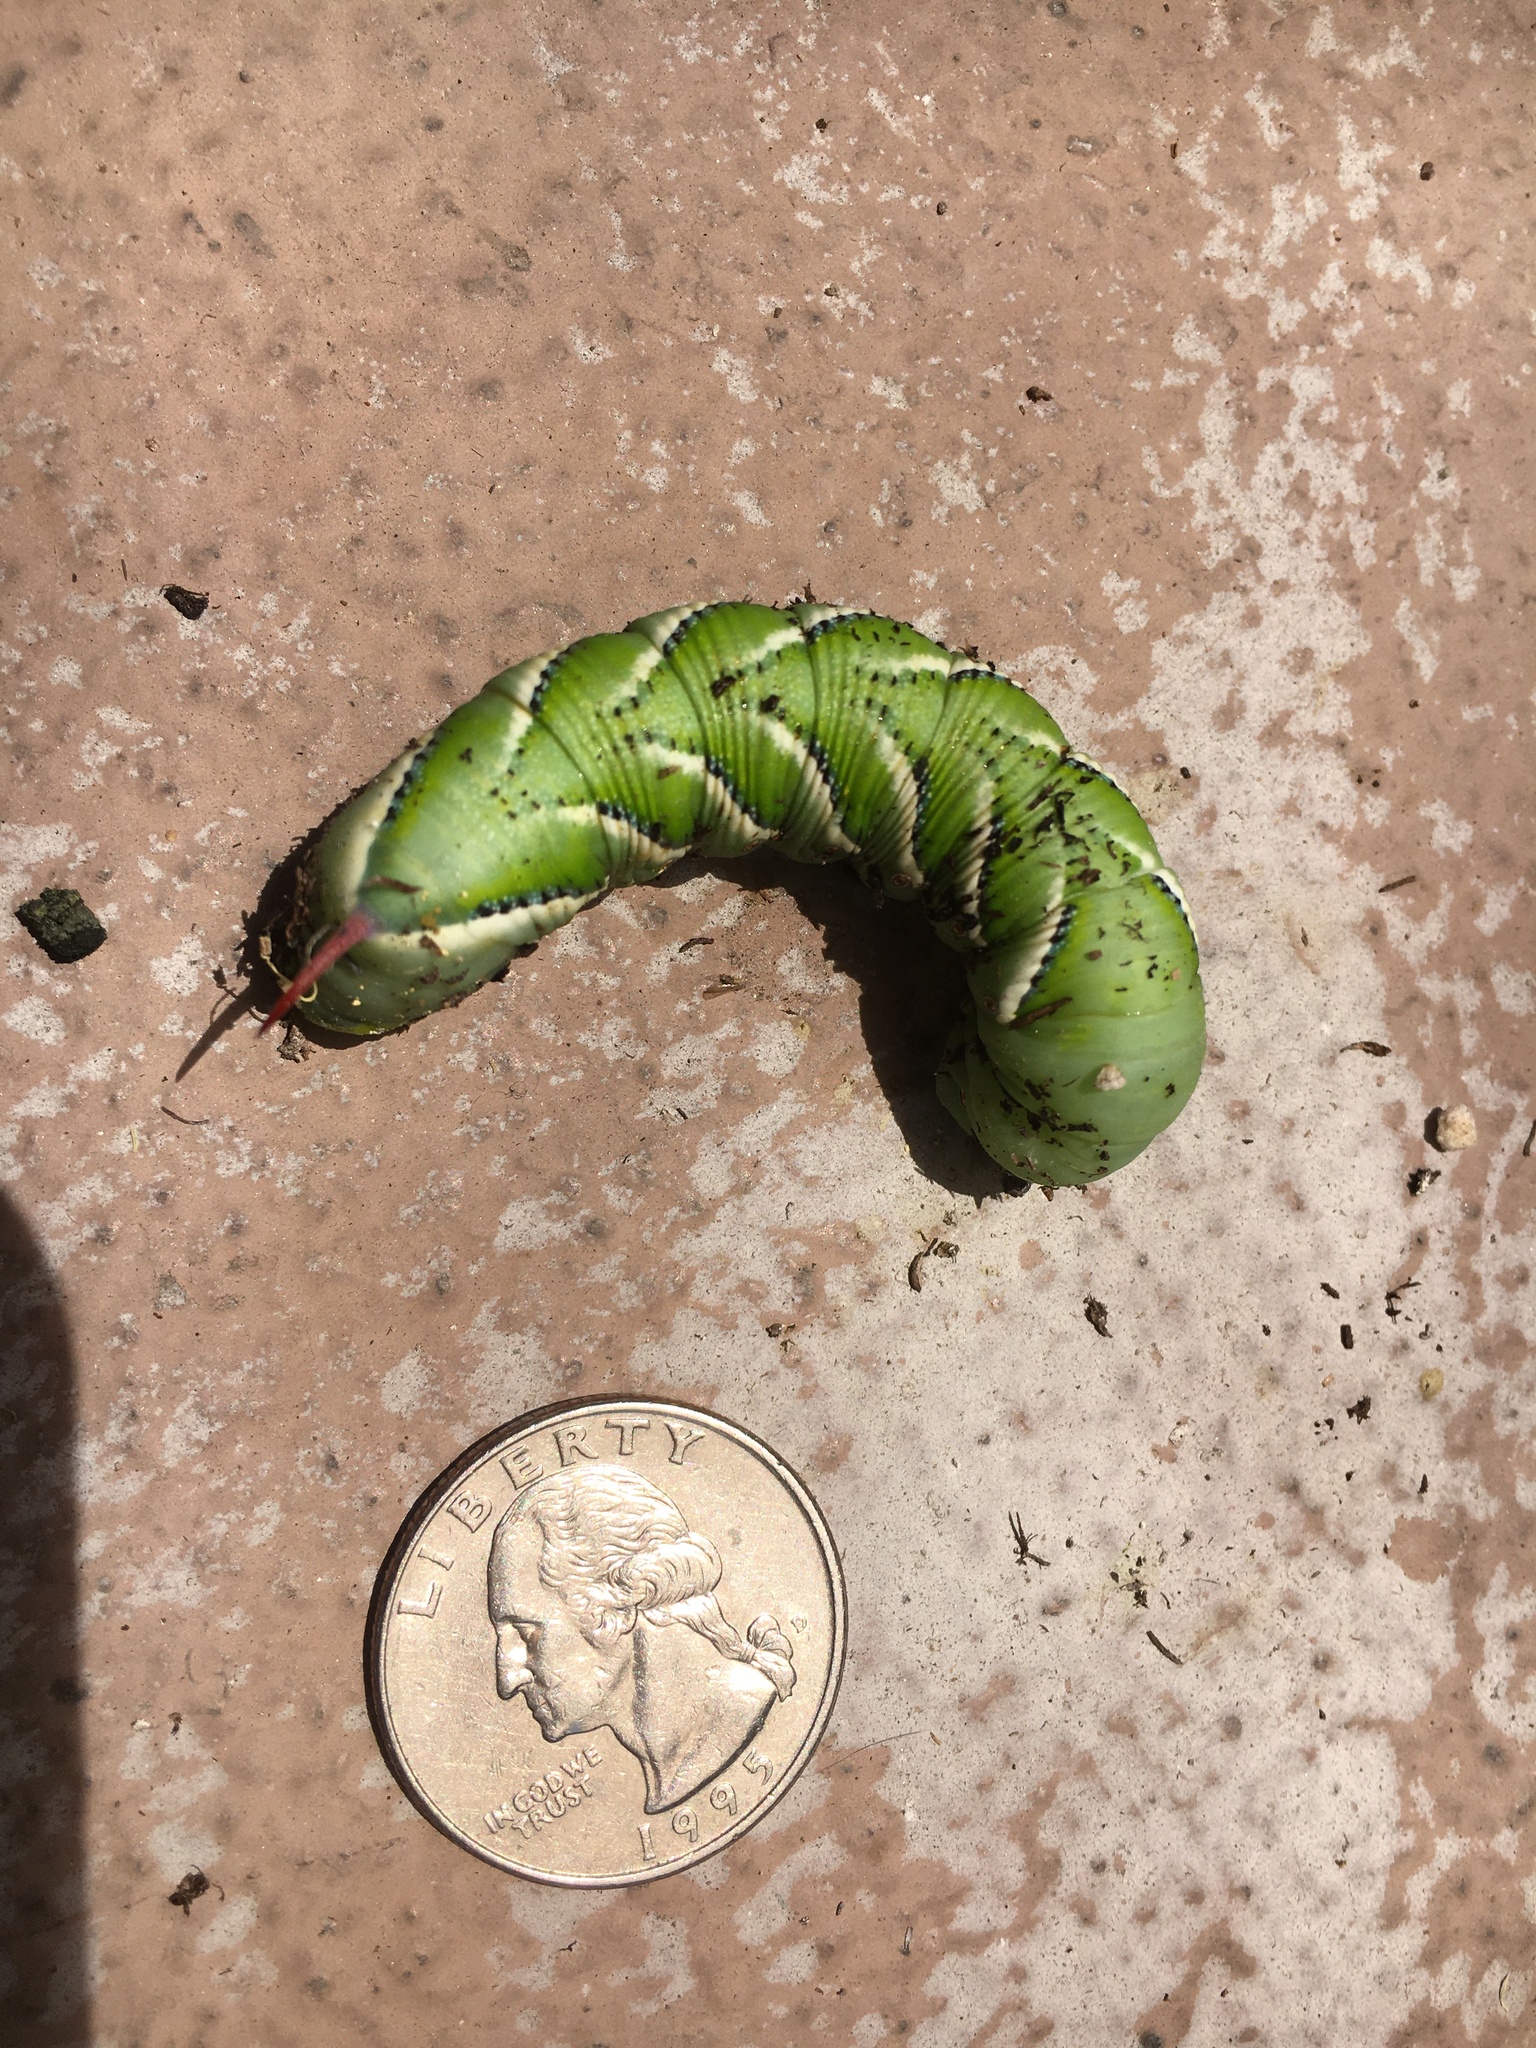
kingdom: Animalia
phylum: Arthropoda
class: Insecta
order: Lepidoptera
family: Sphingidae
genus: Manduca
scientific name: Manduca sexta
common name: Carolina sphinx
